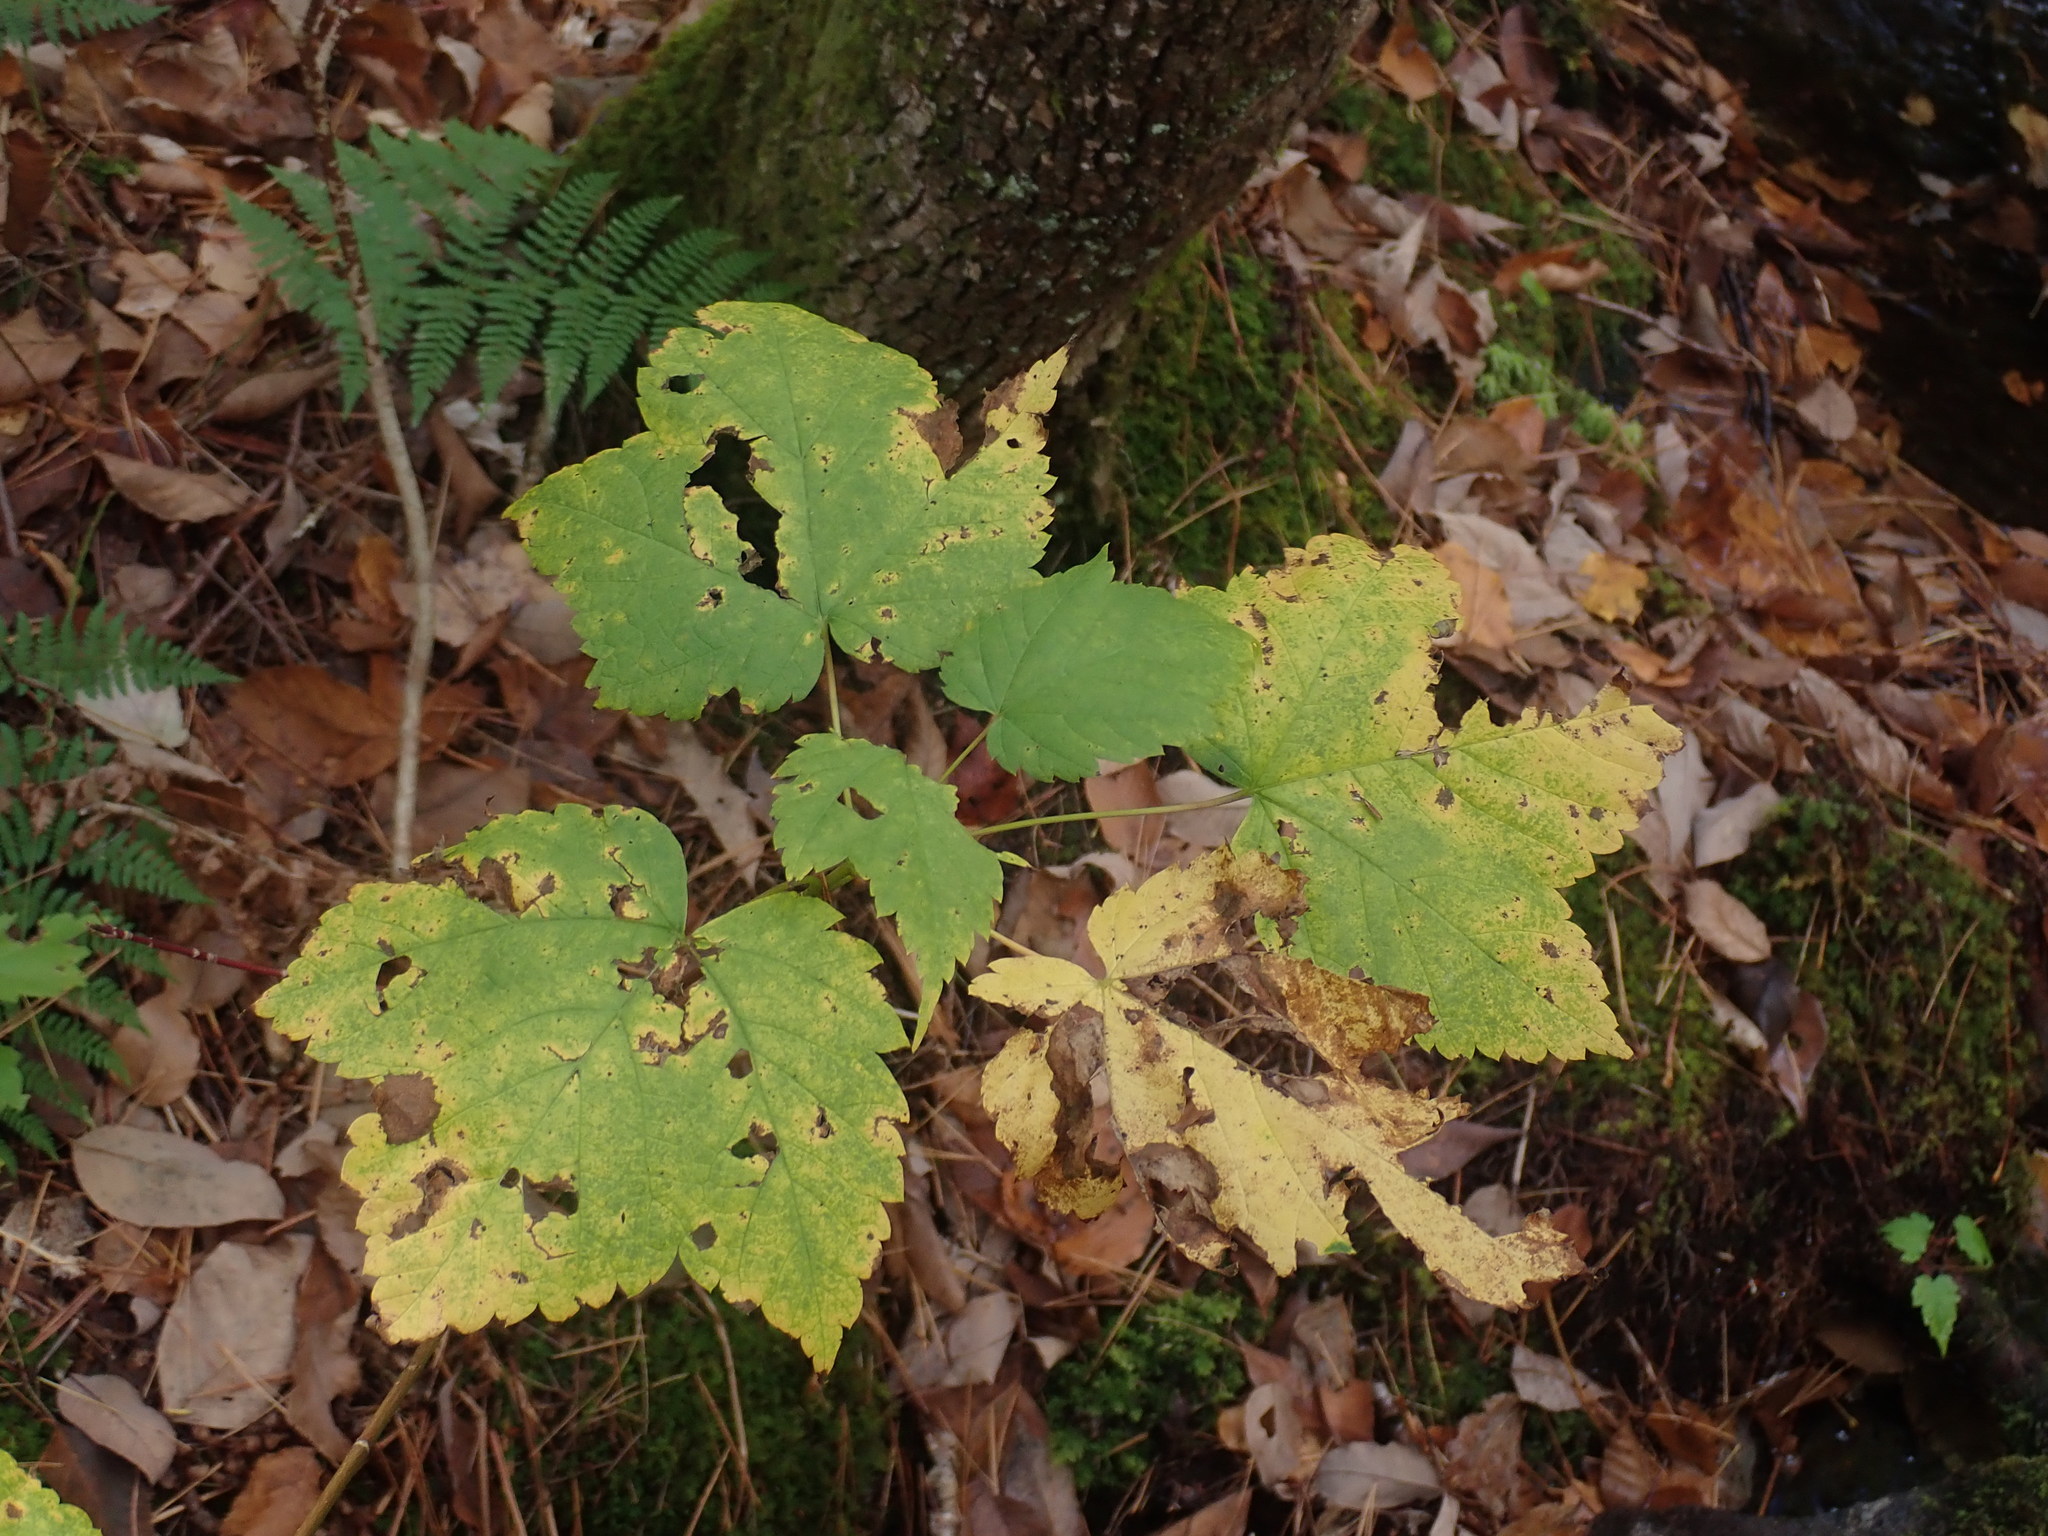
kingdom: Plantae
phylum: Tracheophyta
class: Magnoliopsida
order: Sapindales
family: Sapindaceae
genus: Acer
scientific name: Acer spicatum
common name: Mountain maple
